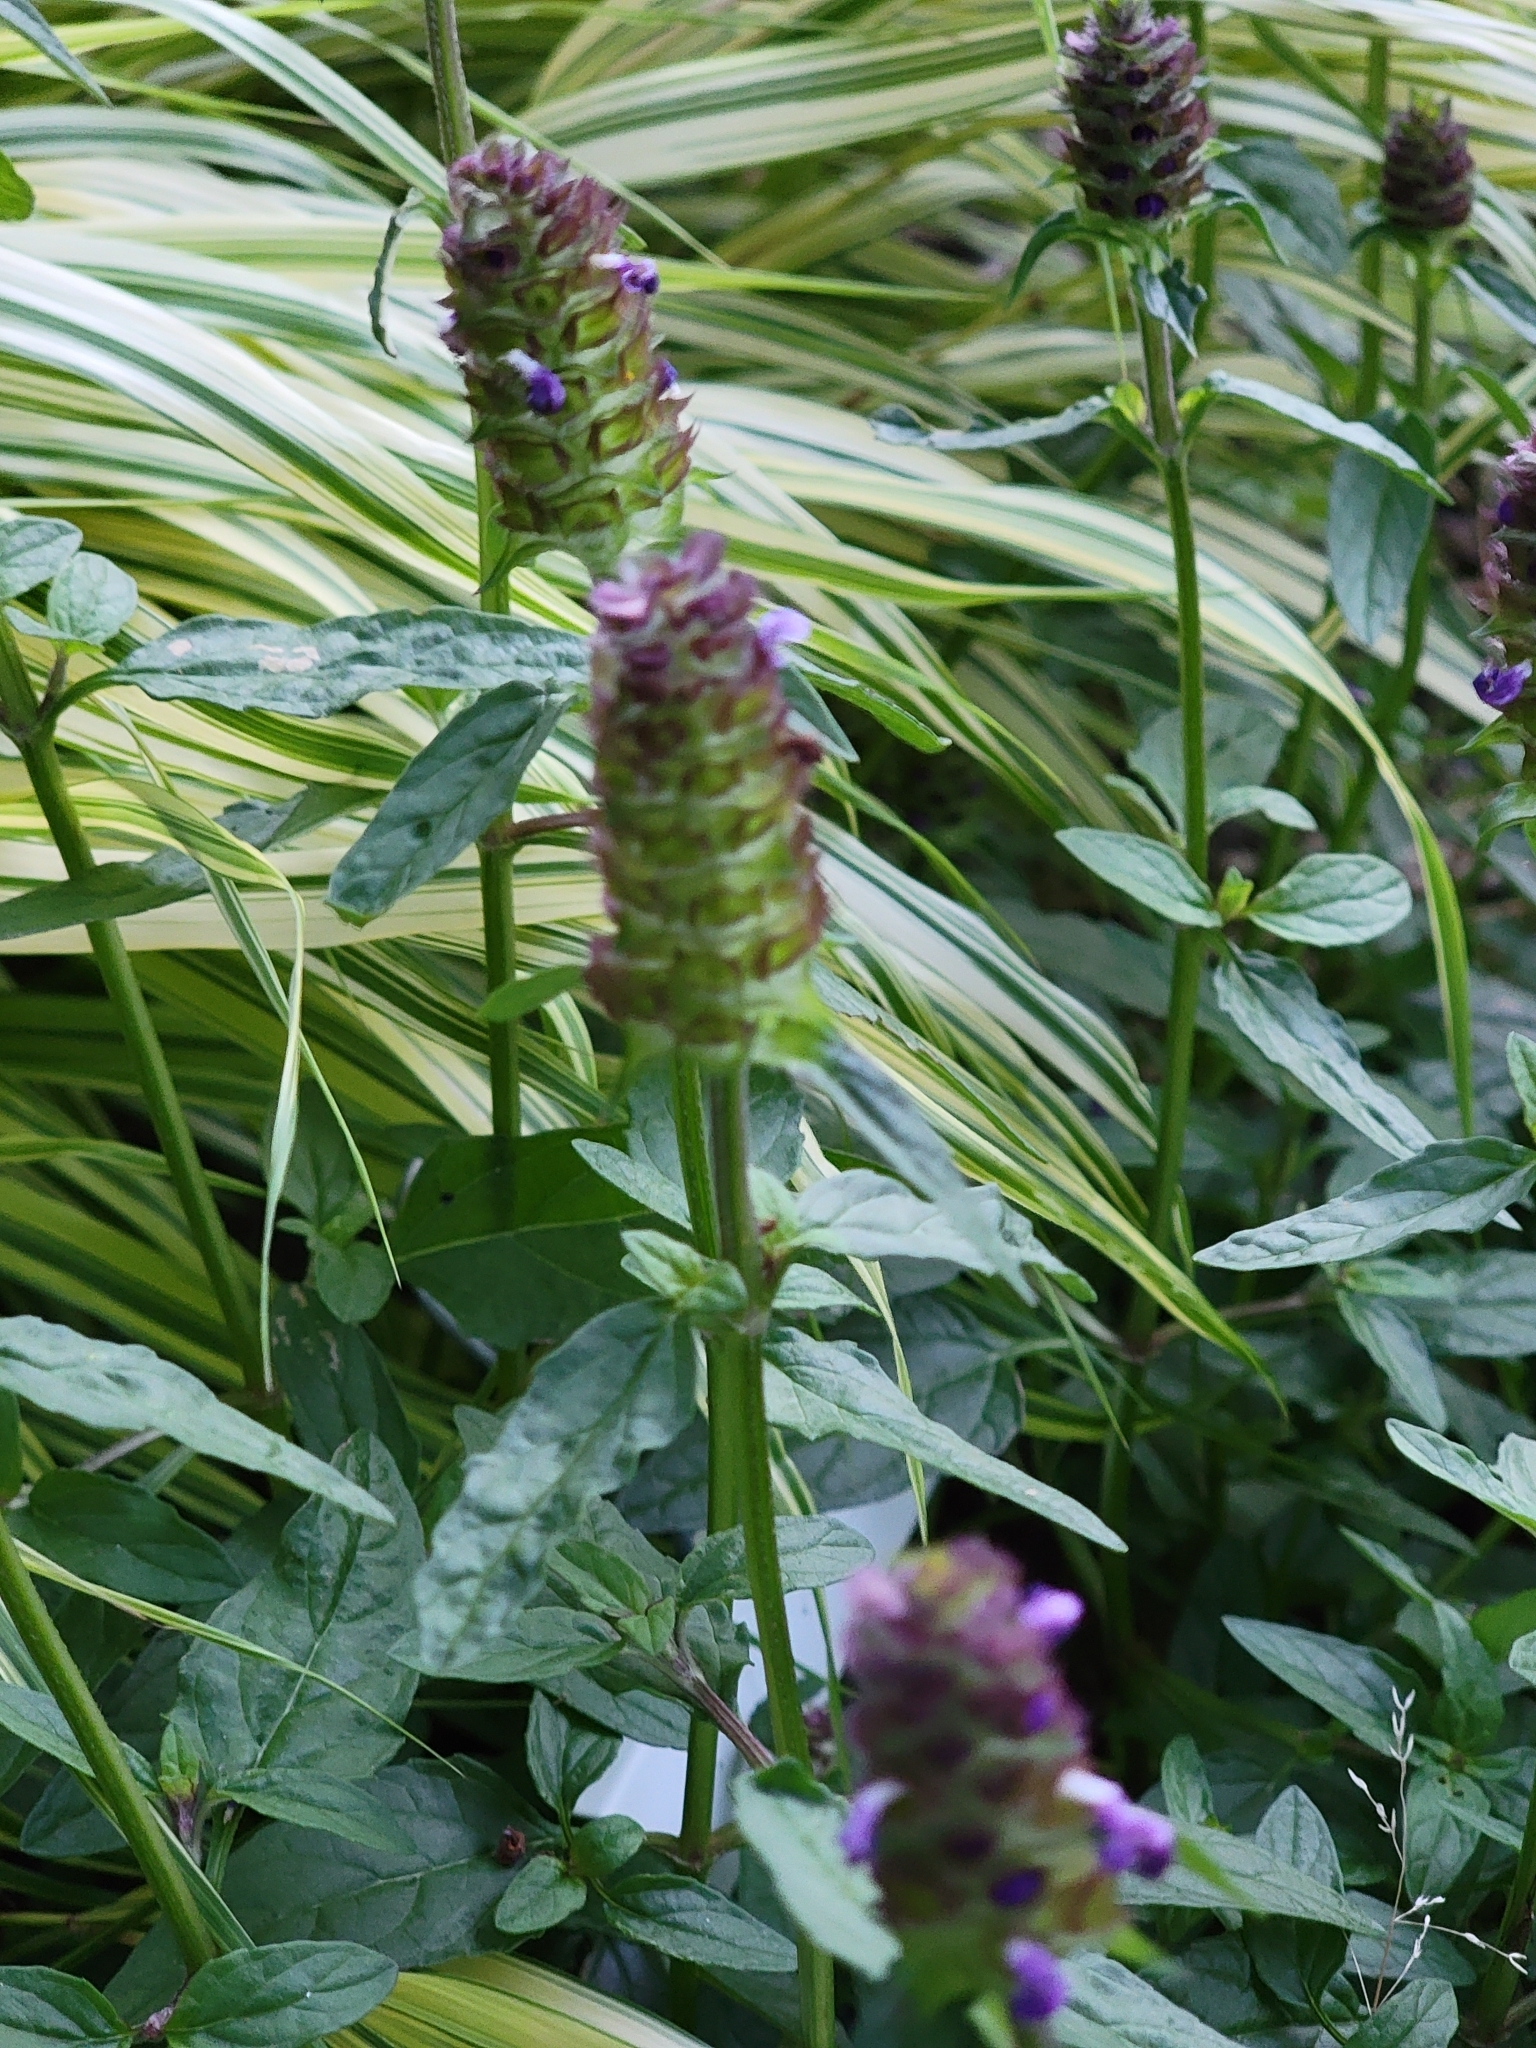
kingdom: Plantae
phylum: Tracheophyta
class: Magnoliopsida
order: Lamiales
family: Lamiaceae
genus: Prunella
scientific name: Prunella vulgaris
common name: Heal-all
